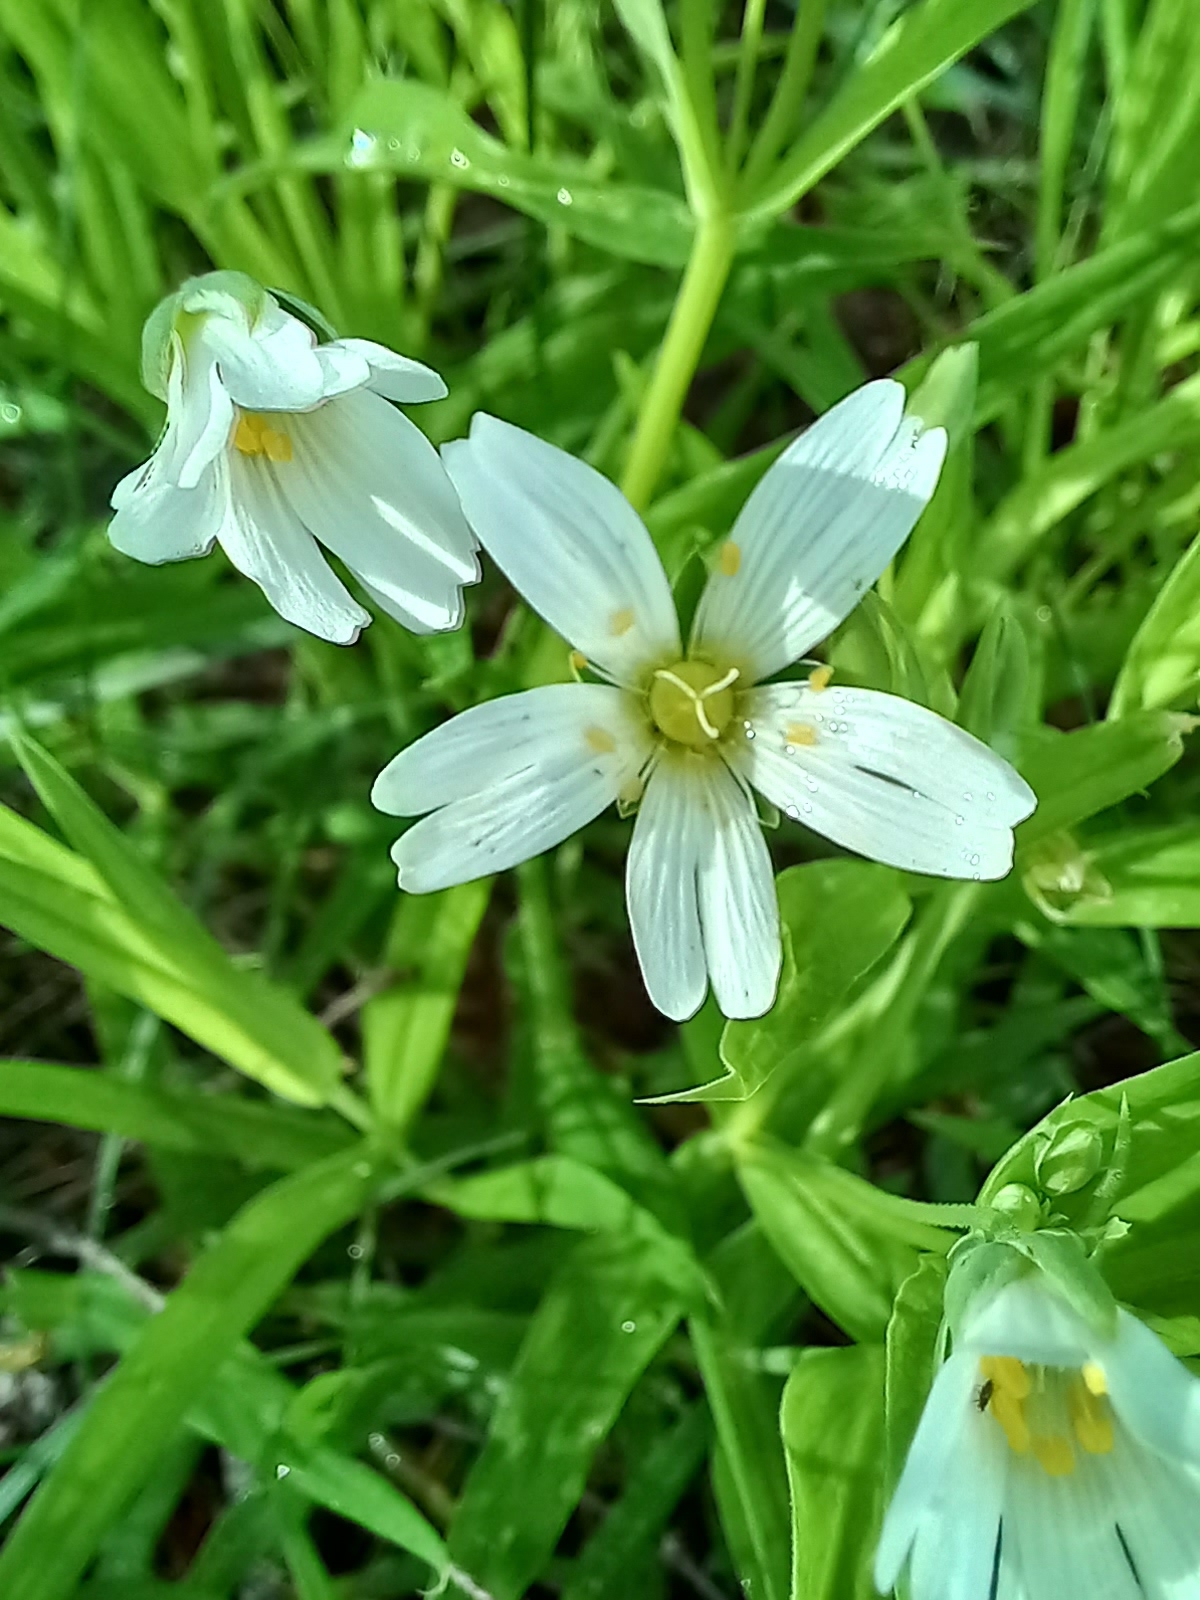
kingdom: Plantae
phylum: Tracheophyta
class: Magnoliopsida
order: Caryophyllales
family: Caryophyllaceae
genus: Rabelera
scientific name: Rabelera holostea
